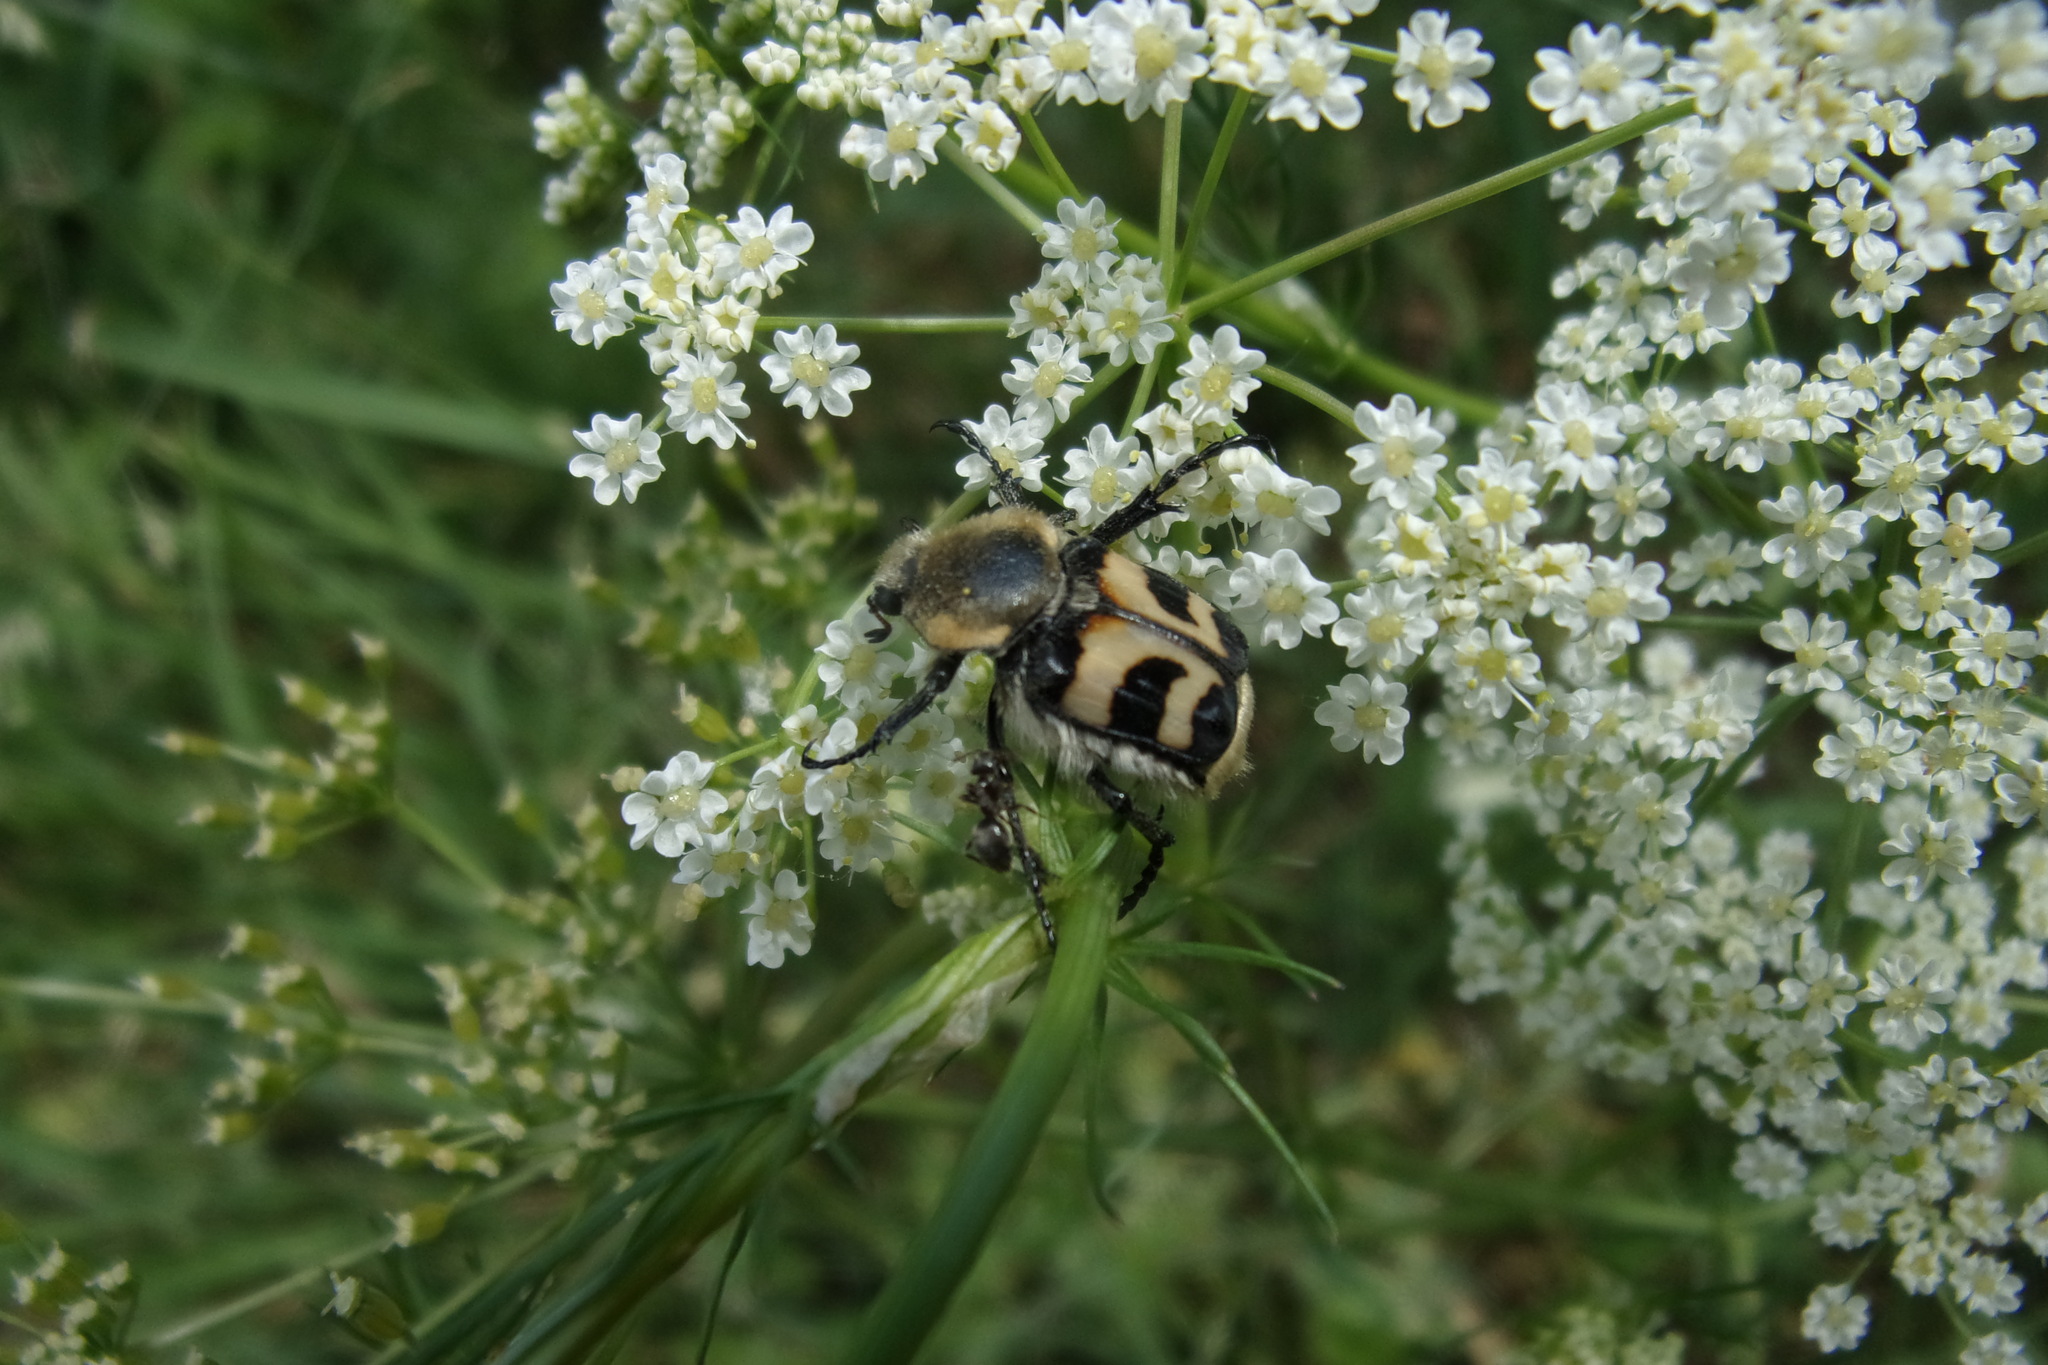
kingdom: Animalia
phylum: Arthropoda
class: Insecta
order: Coleoptera
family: Scarabaeidae
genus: Trichius
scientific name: Trichius fasciatus
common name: Bee beetle
